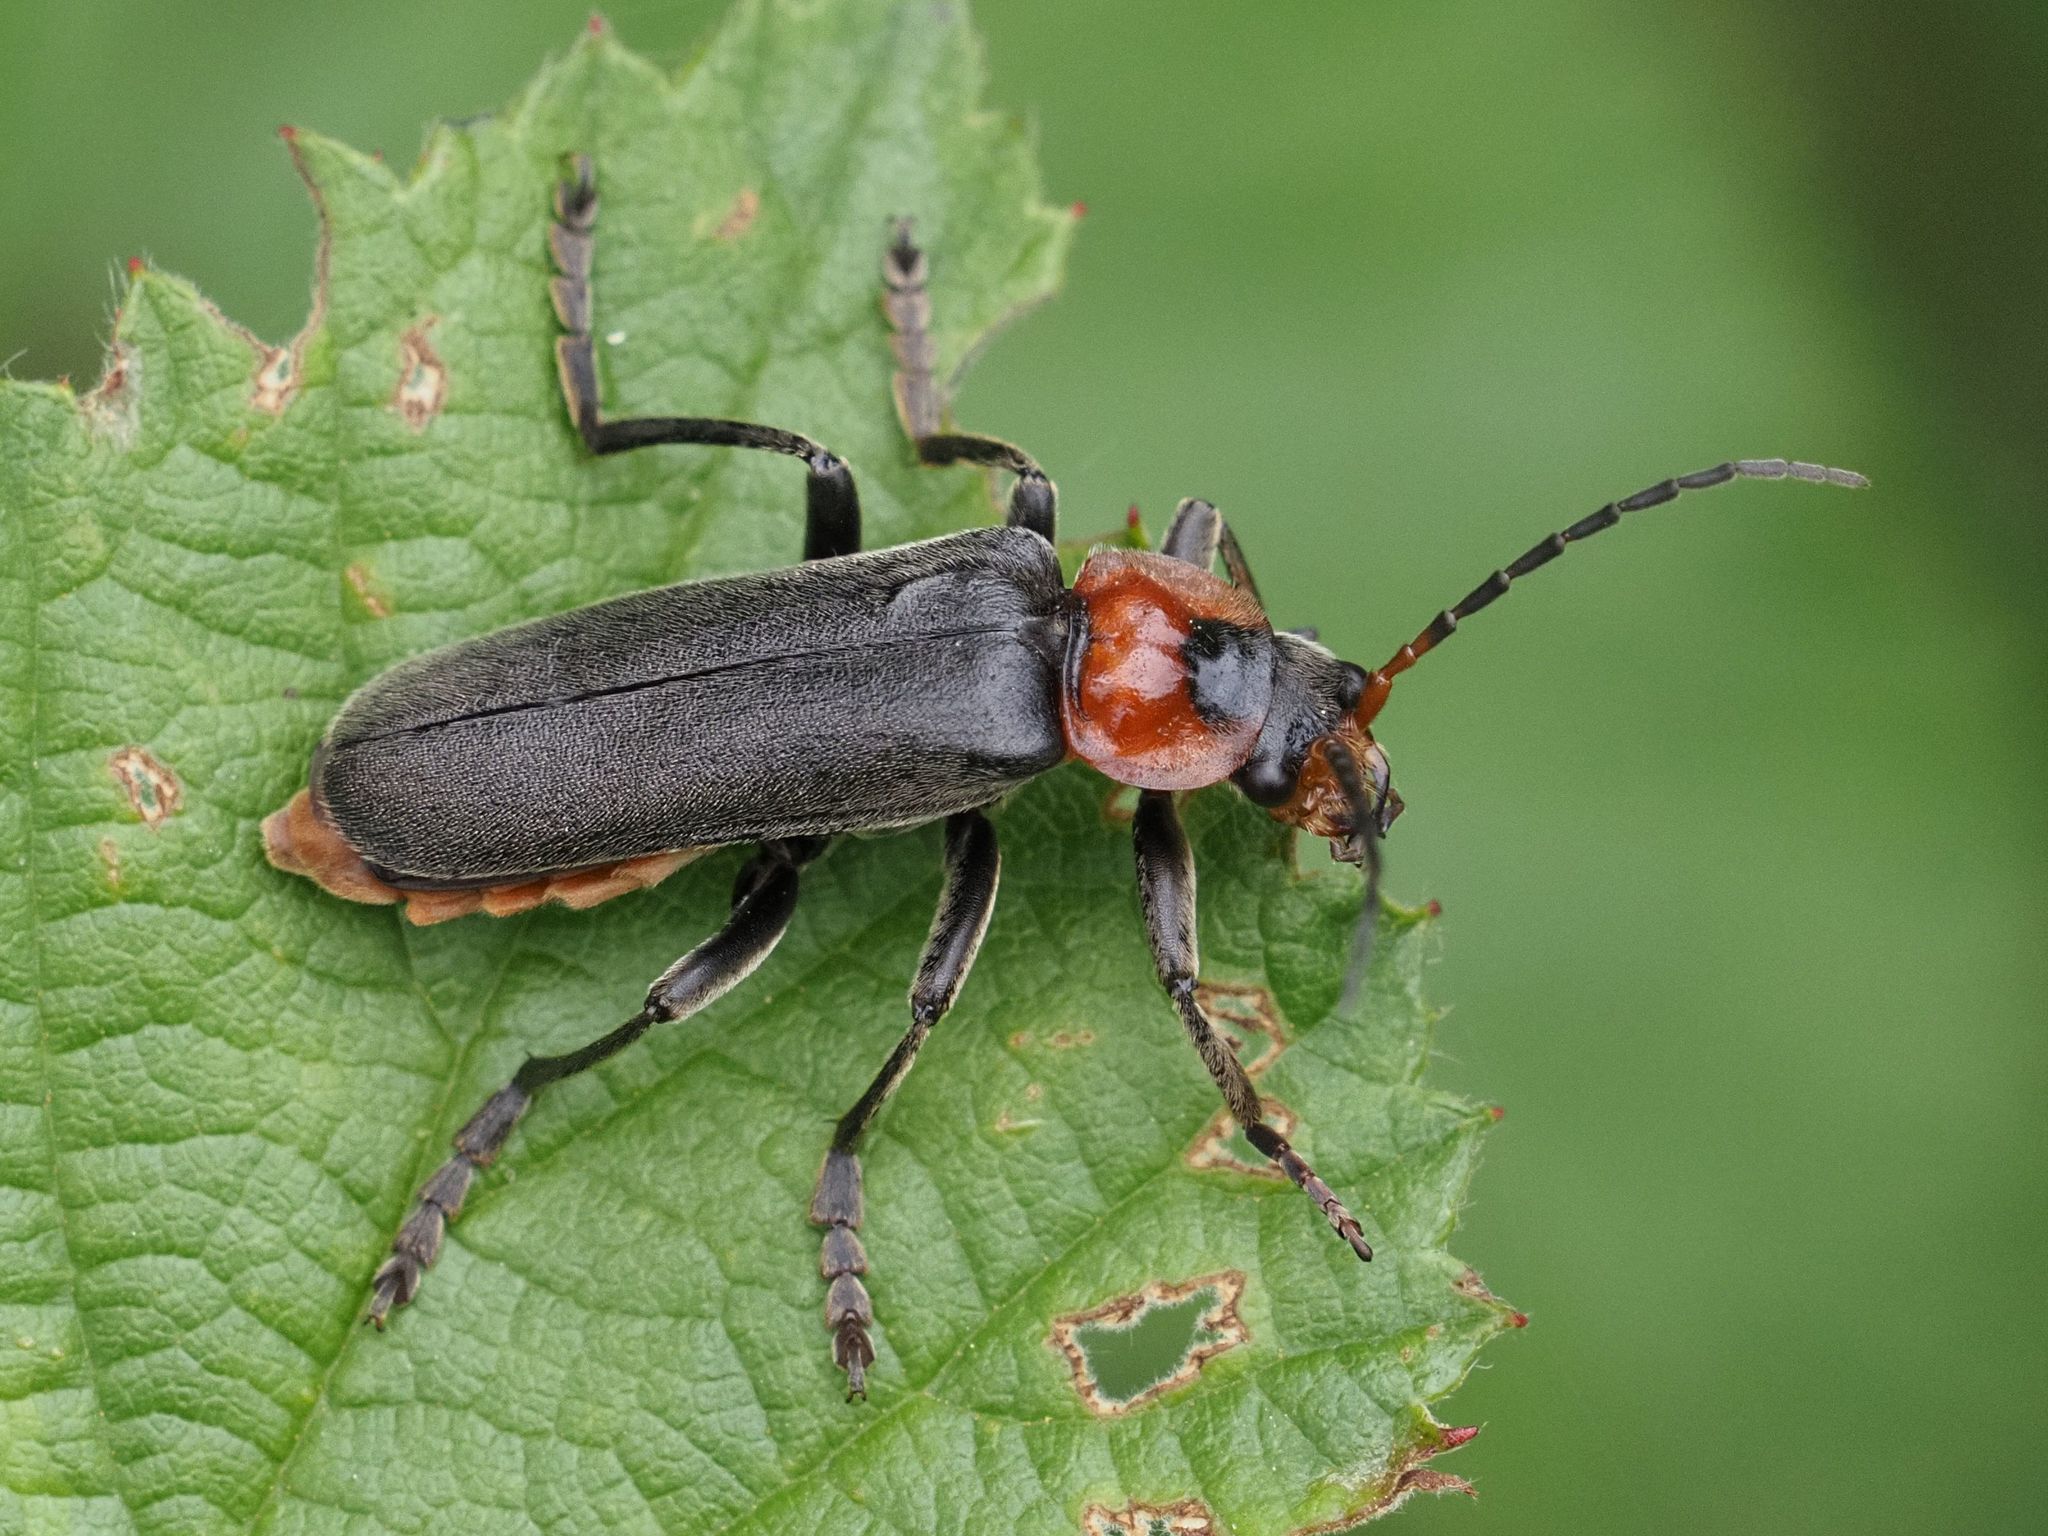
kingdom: Animalia
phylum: Arthropoda
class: Insecta
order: Coleoptera
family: Cantharidae
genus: Cantharis
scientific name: Cantharis fusca
